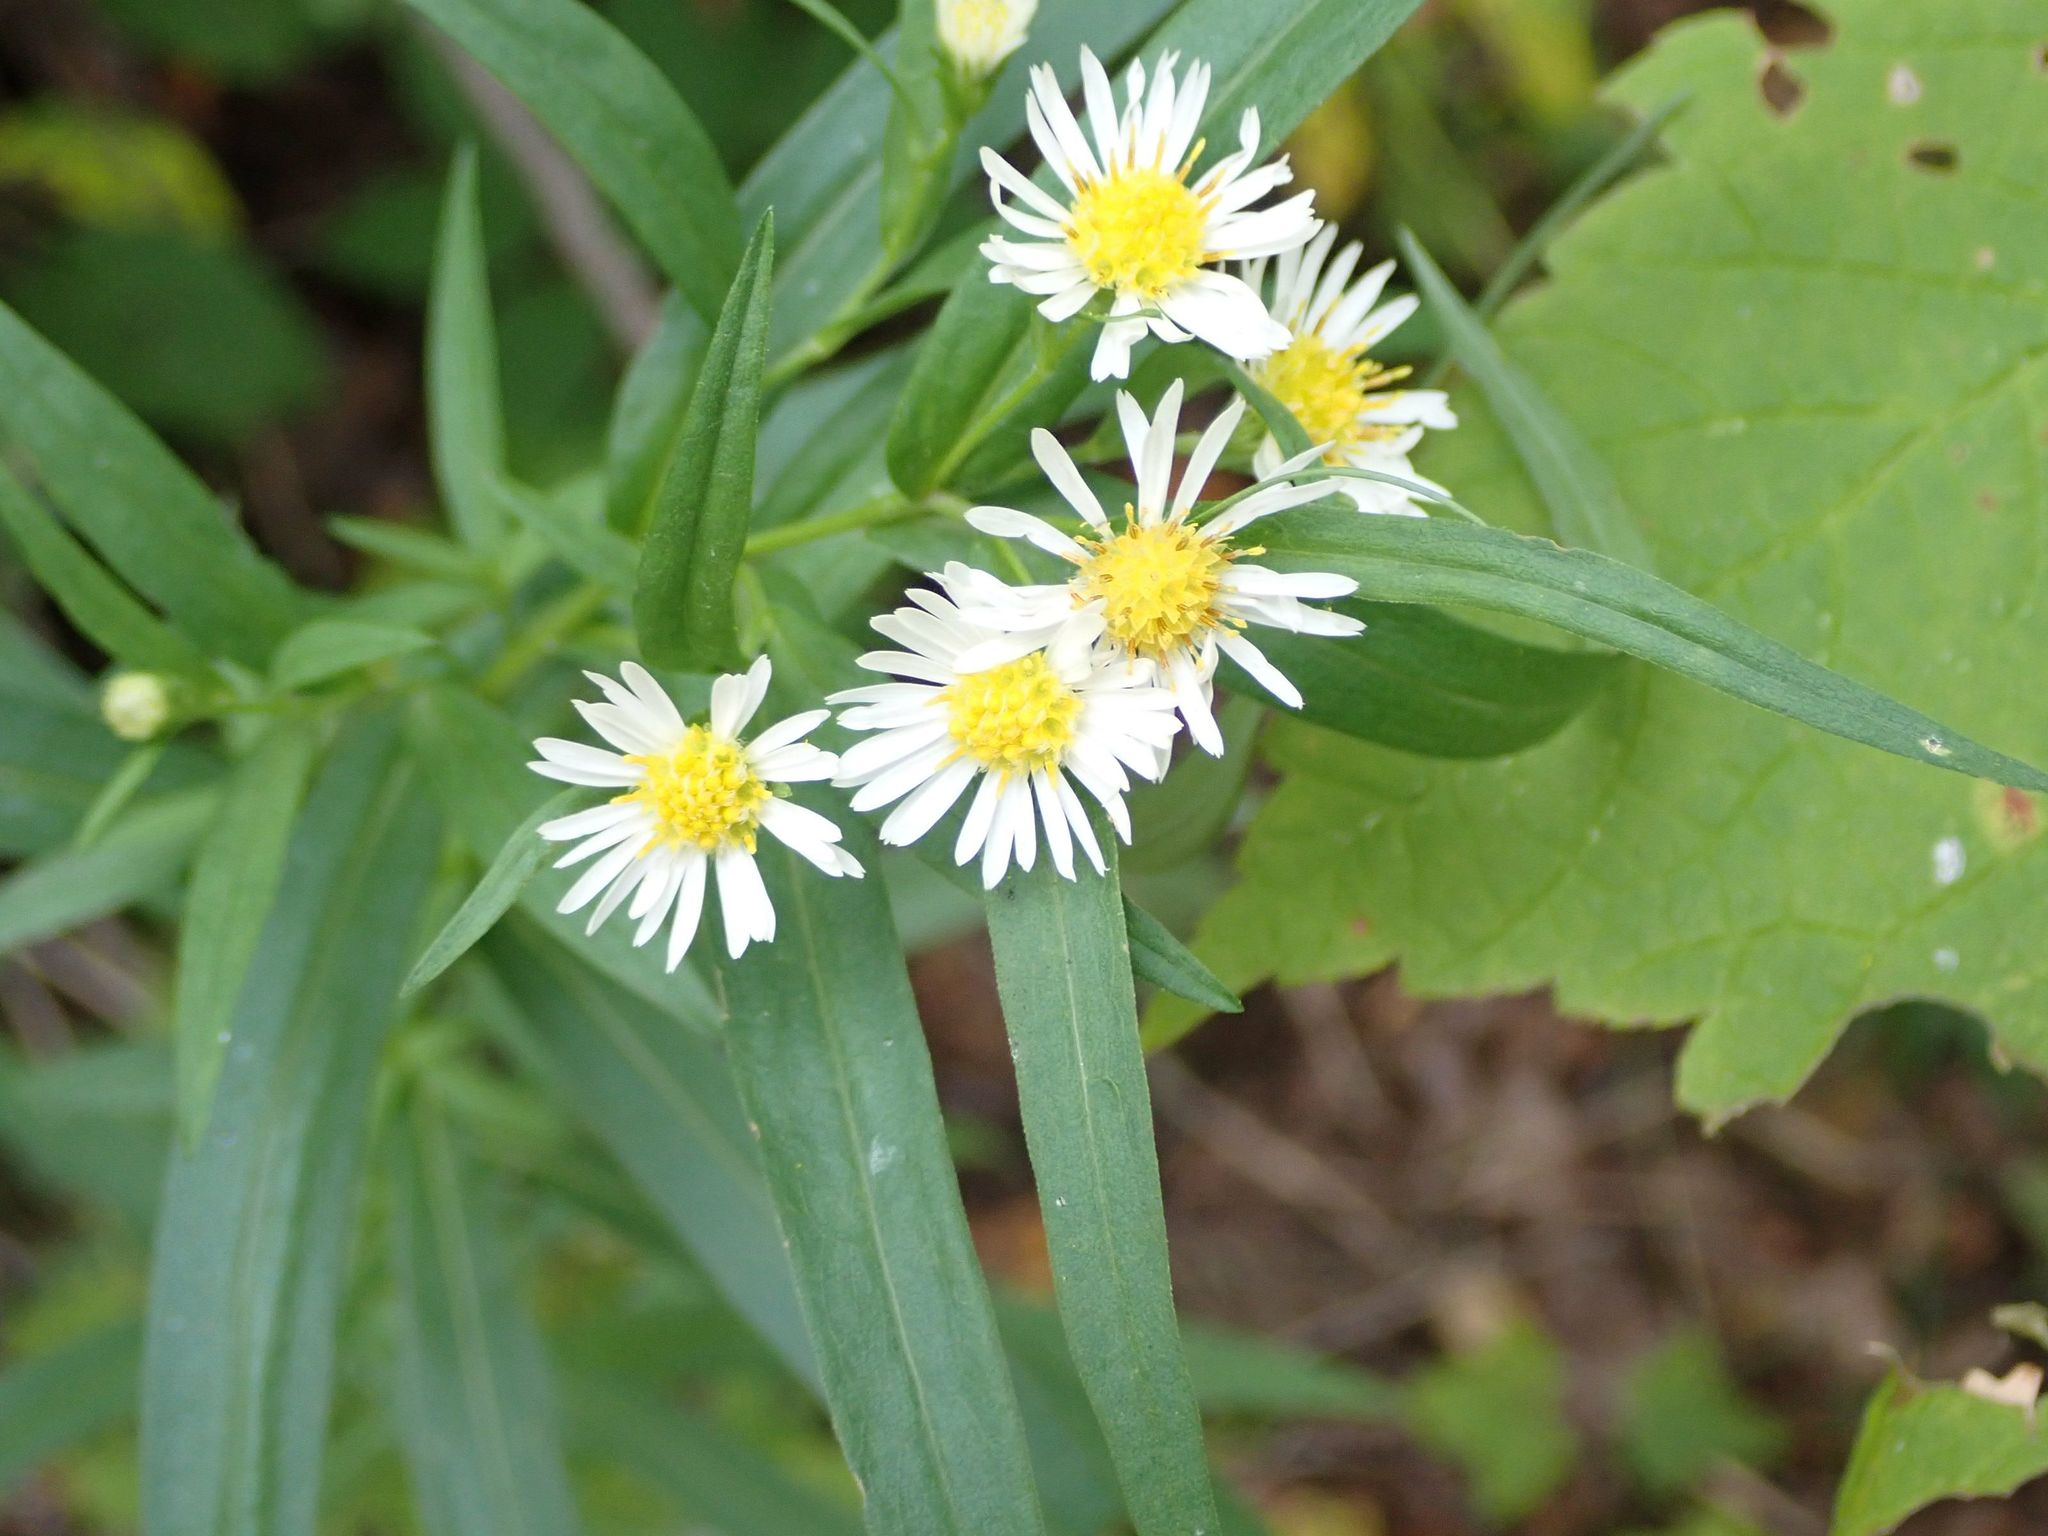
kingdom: Plantae
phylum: Tracheophyta
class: Magnoliopsida
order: Asterales
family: Asteraceae
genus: Symphyotrichum
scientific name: Symphyotrichum lanceolatum
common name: Panicled aster
